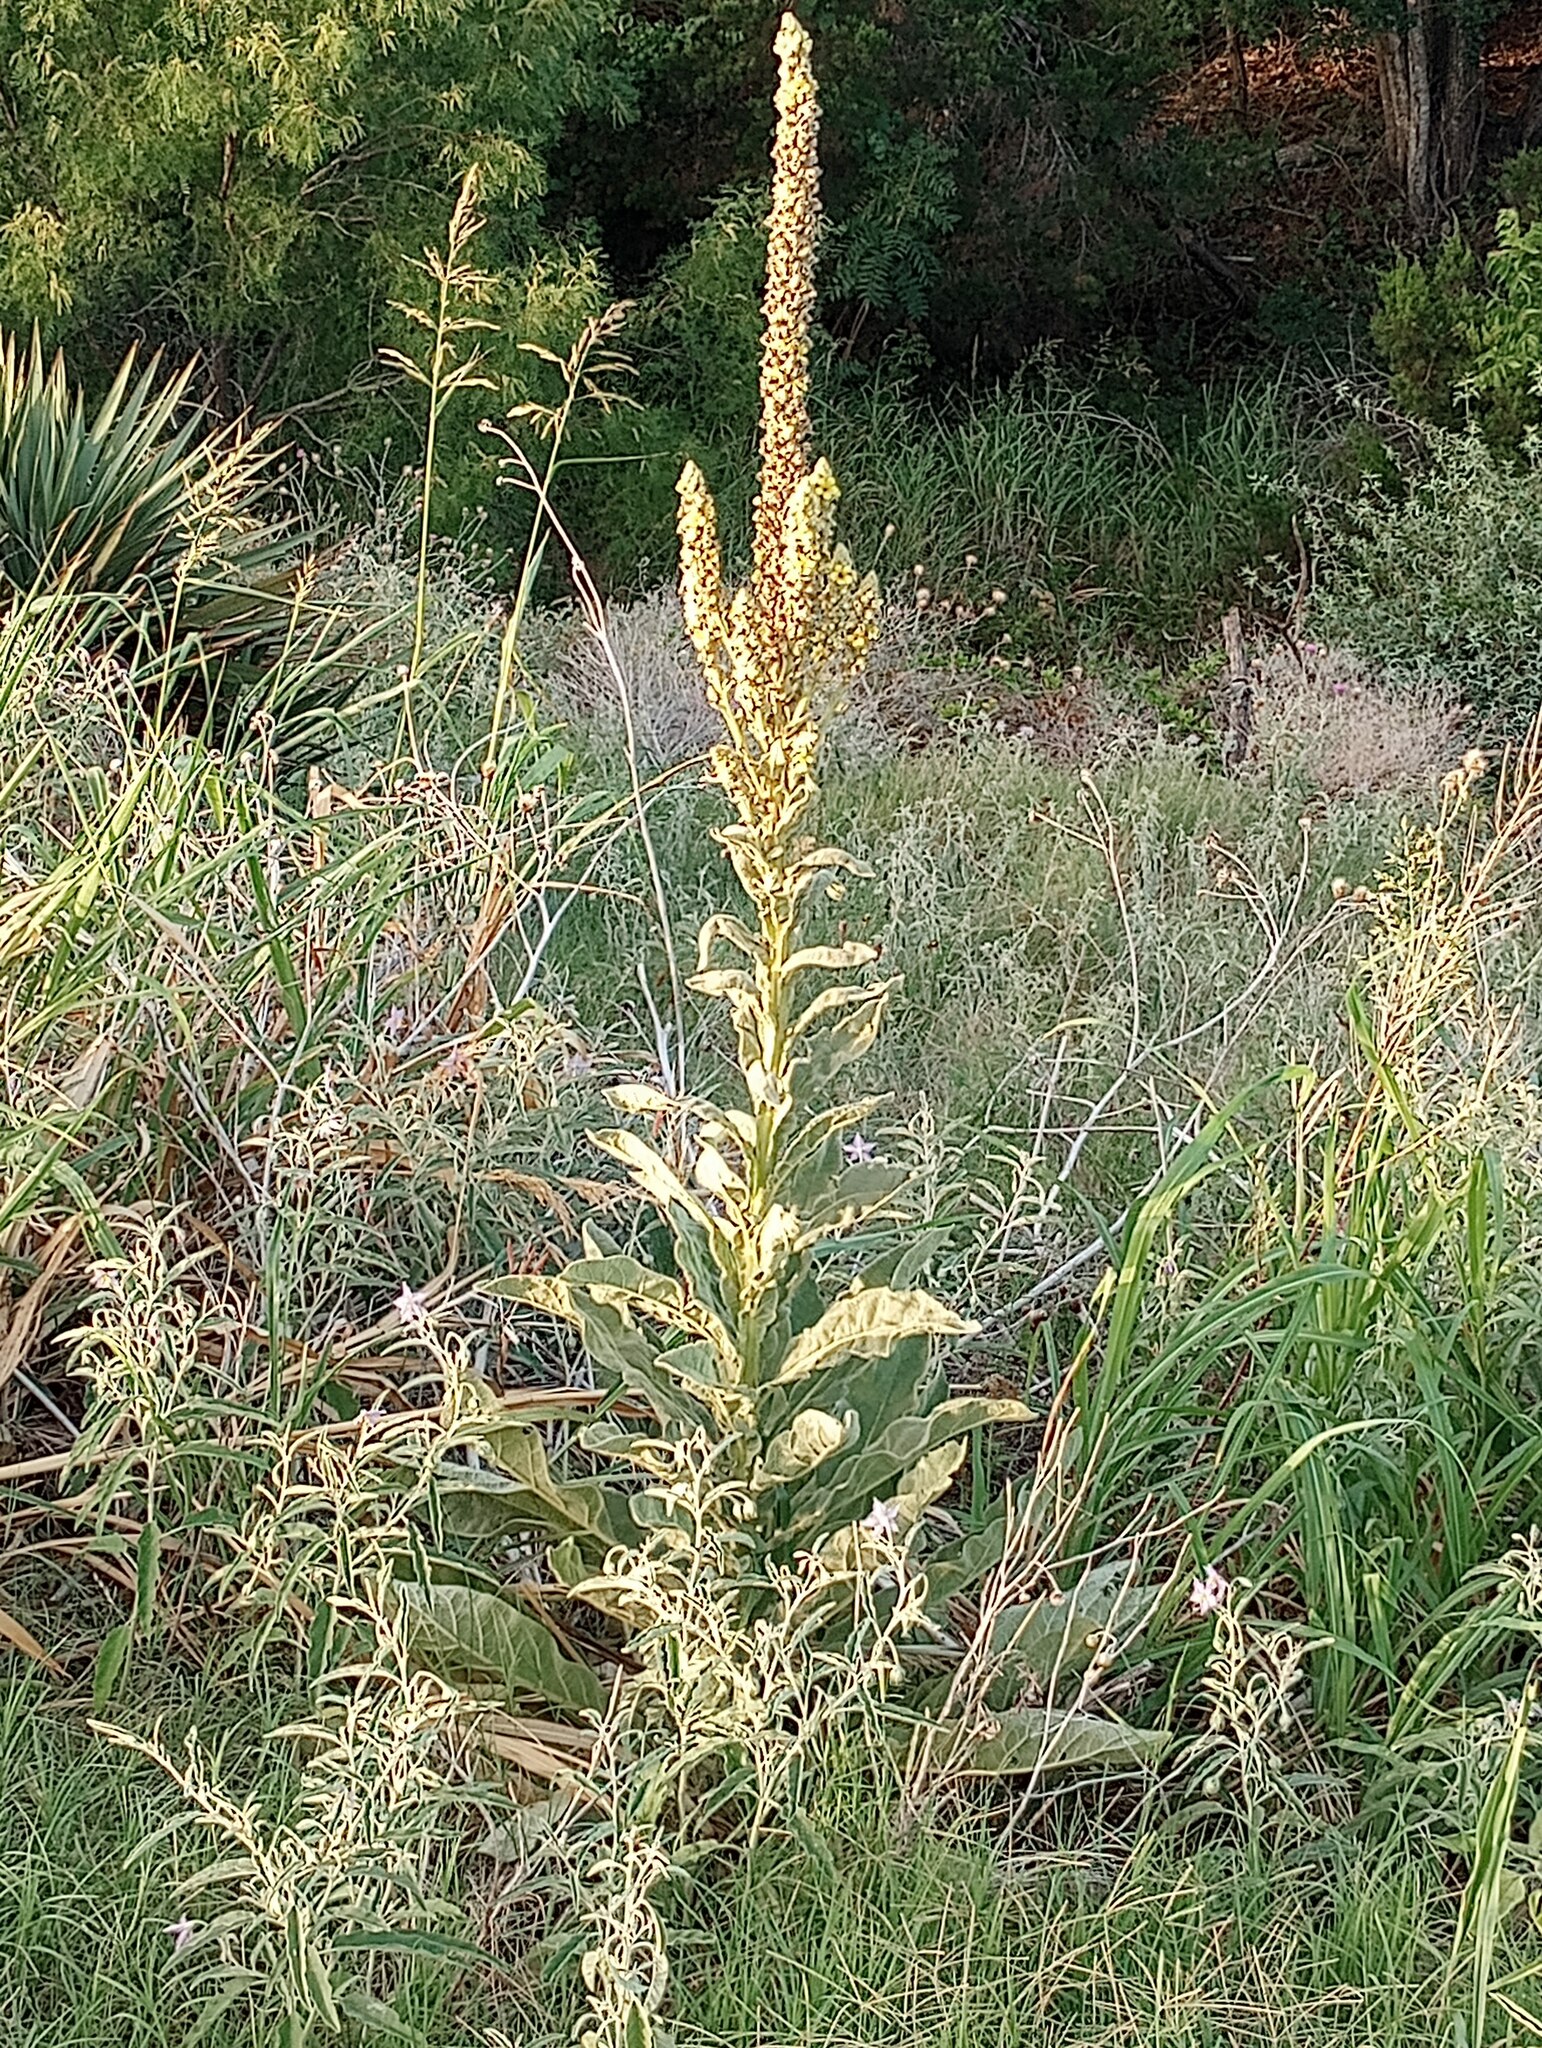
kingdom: Plantae
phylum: Tracheophyta
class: Magnoliopsida
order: Lamiales
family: Scrophulariaceae
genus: Verbascum
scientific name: Verbascum thapsus
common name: Common mullein
